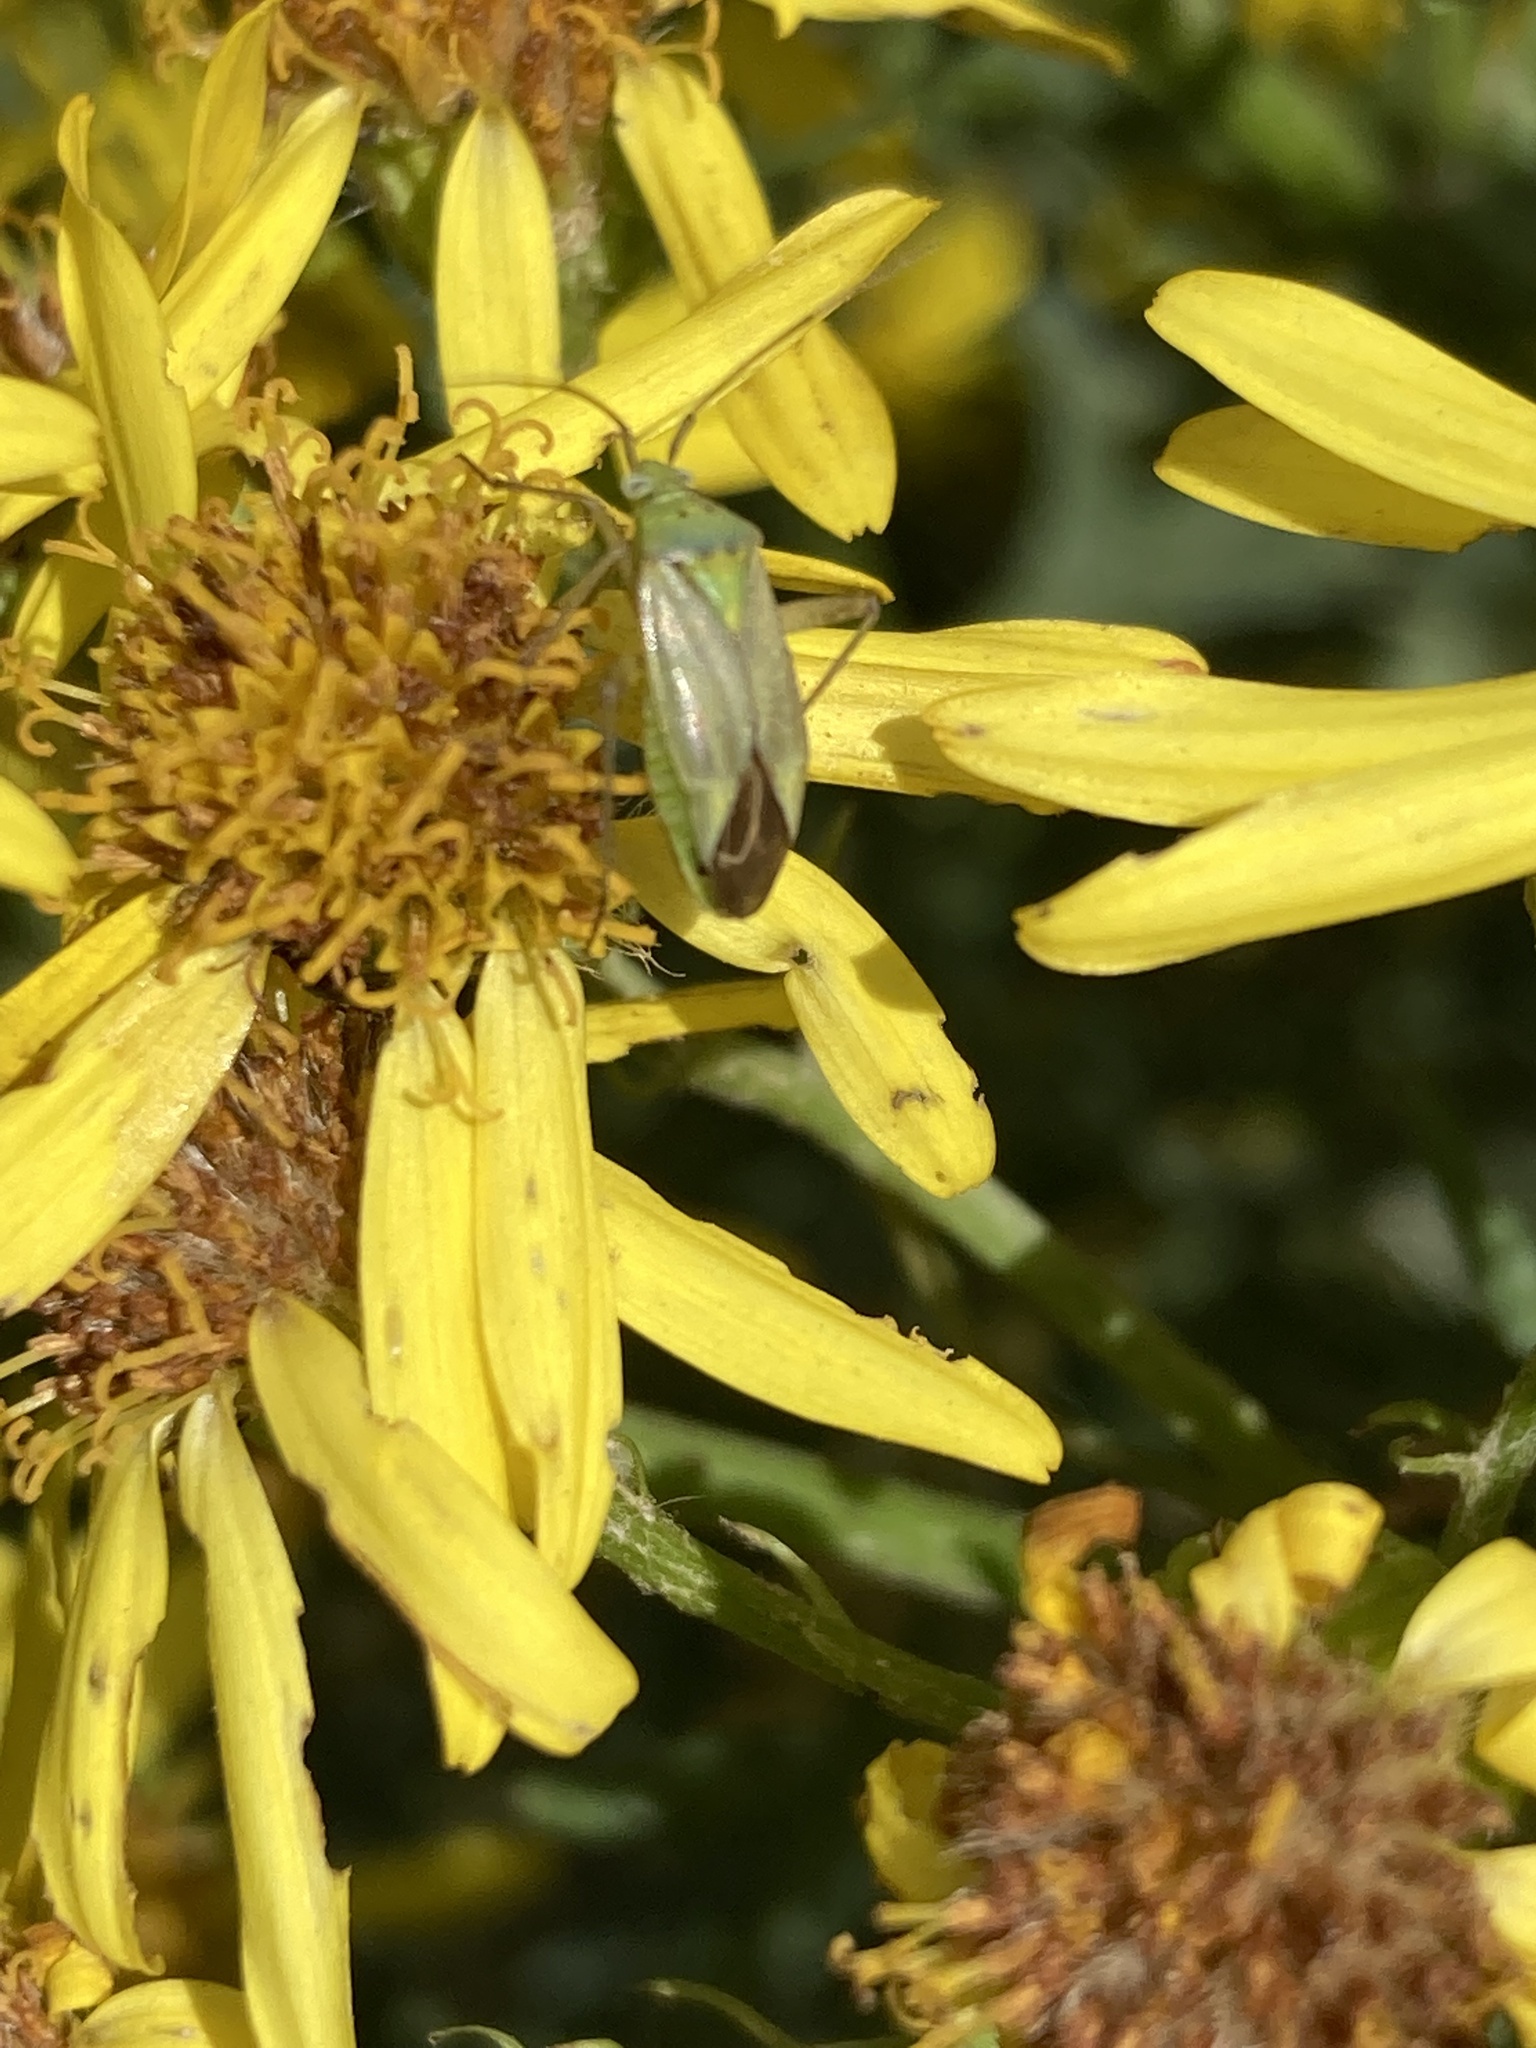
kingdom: Animalia
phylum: Arthropoda
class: Insecta
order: Hemiptera
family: Miridae
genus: Closterotomus
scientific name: Closterotomus norvegicus
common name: Plant bug
